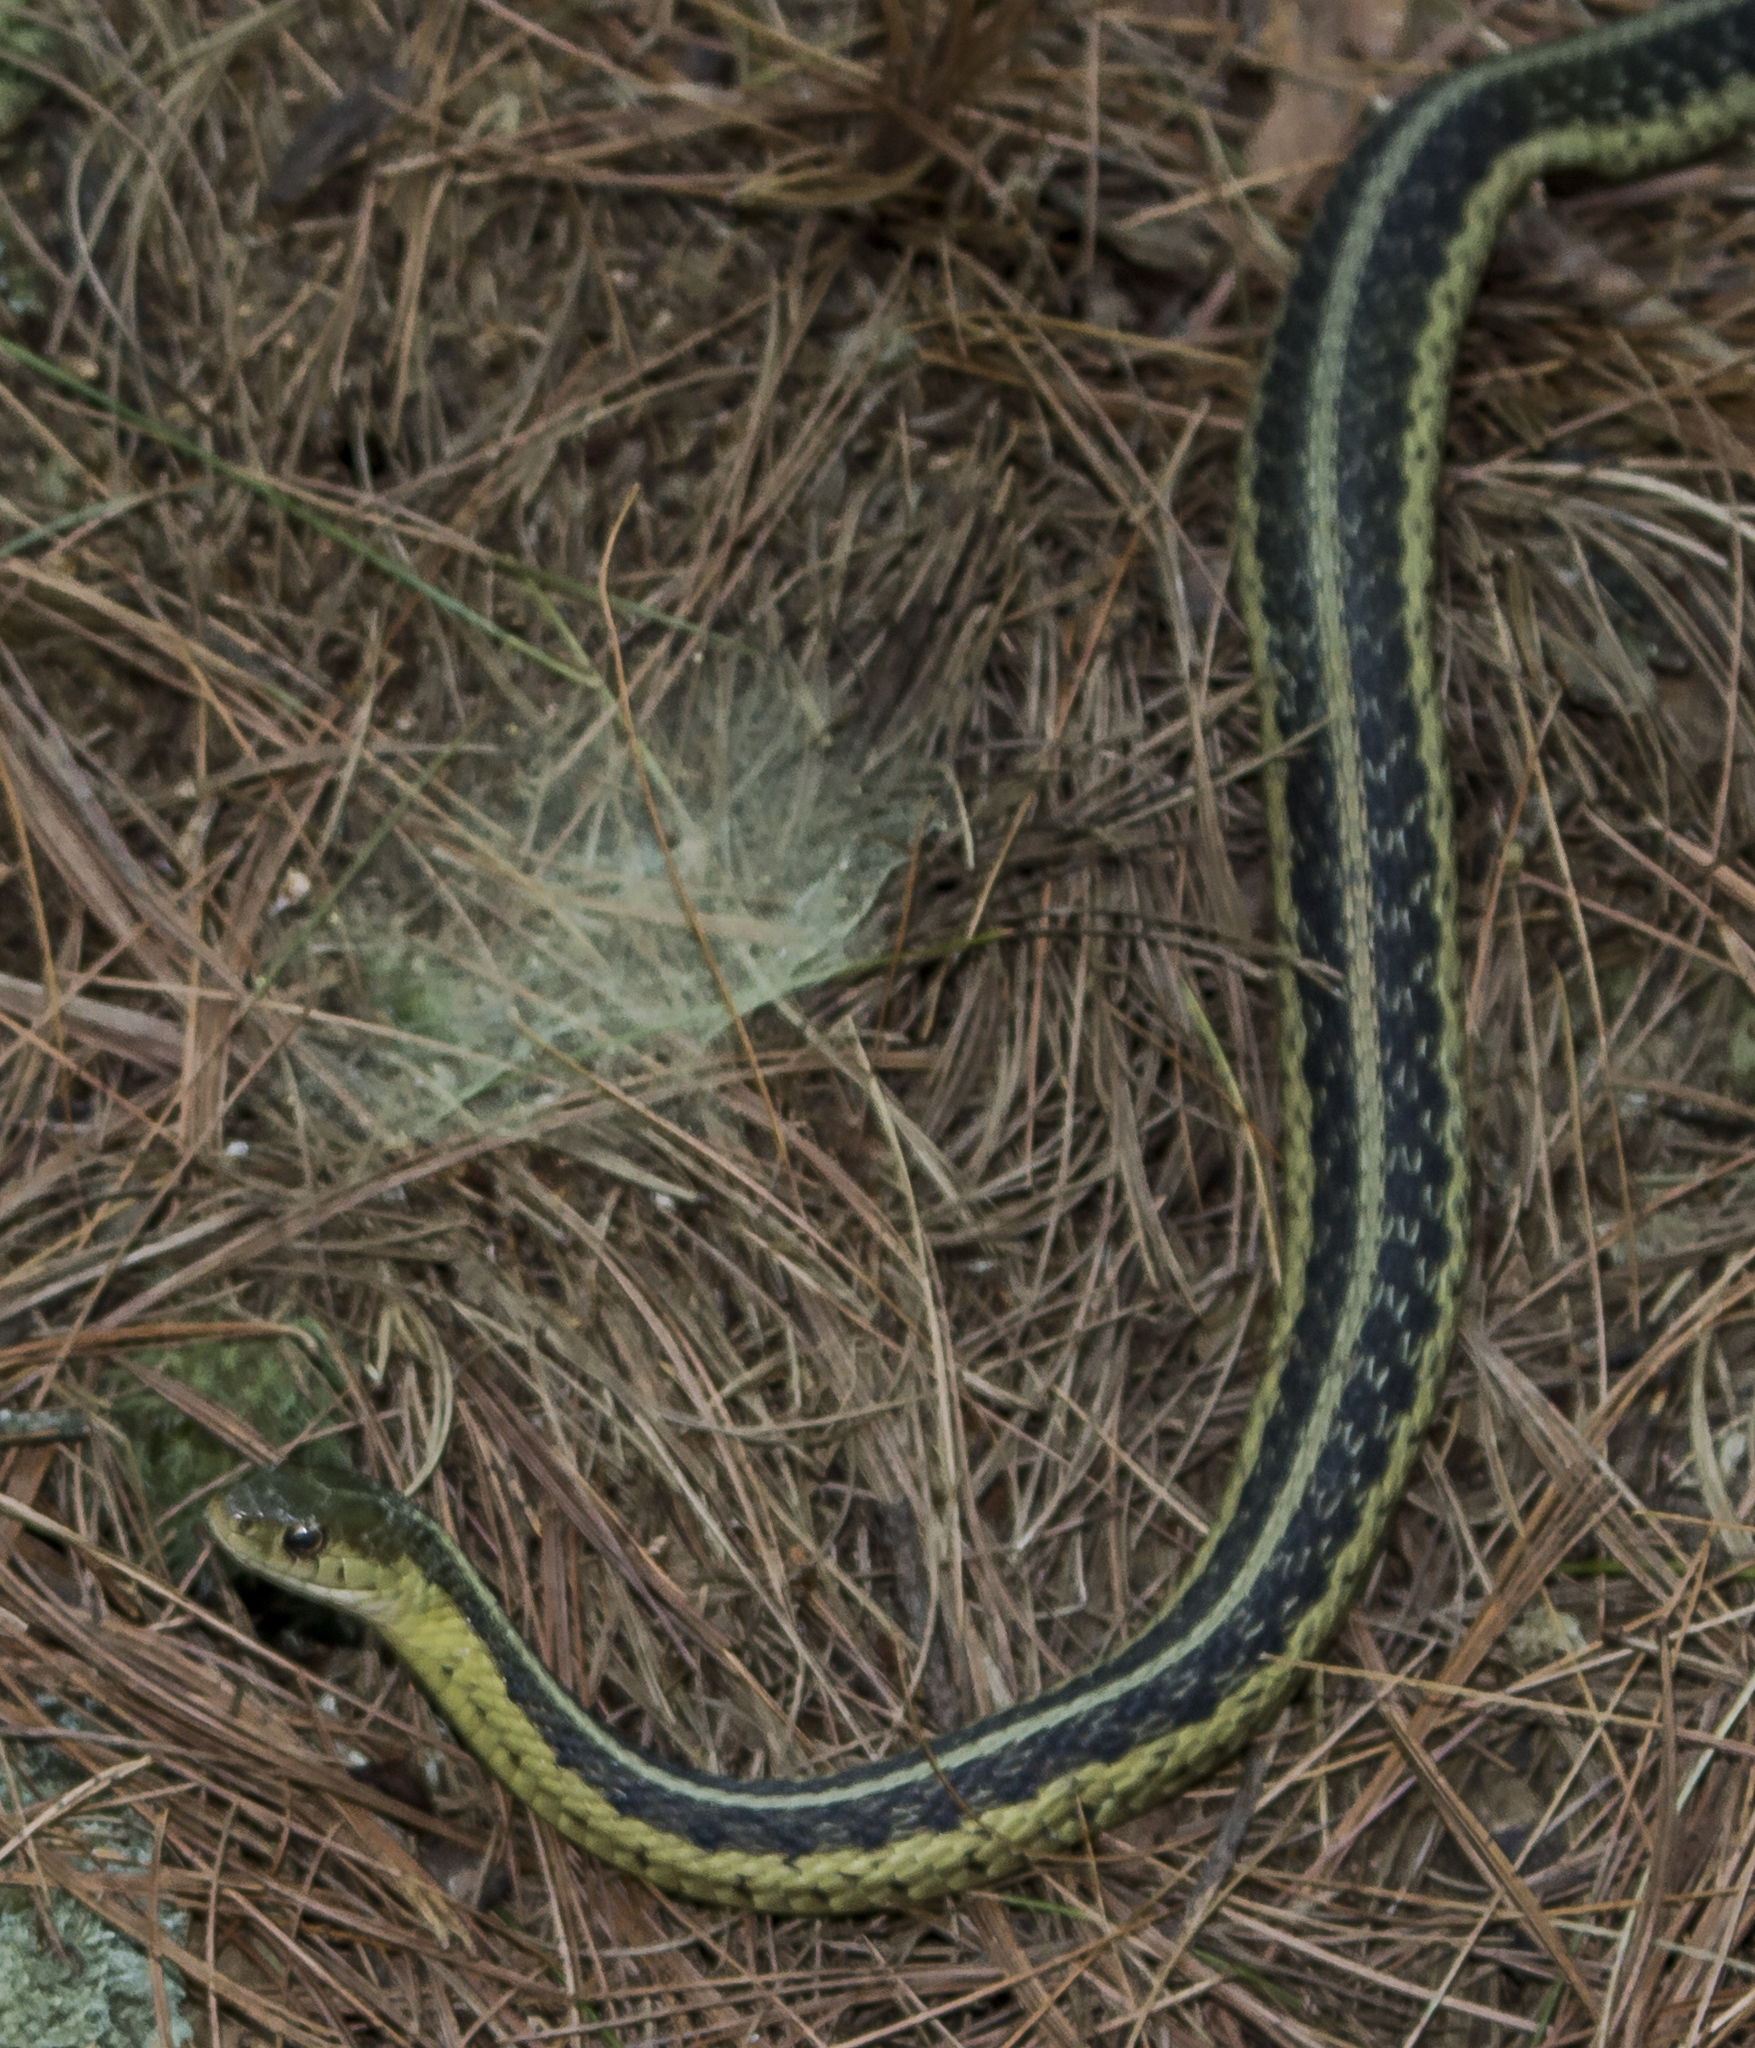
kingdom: Animalia
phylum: Chordata
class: Squamata
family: Colubridae
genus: Thamnophis
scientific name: Thamnophis sirtalis
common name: Common garter snake
